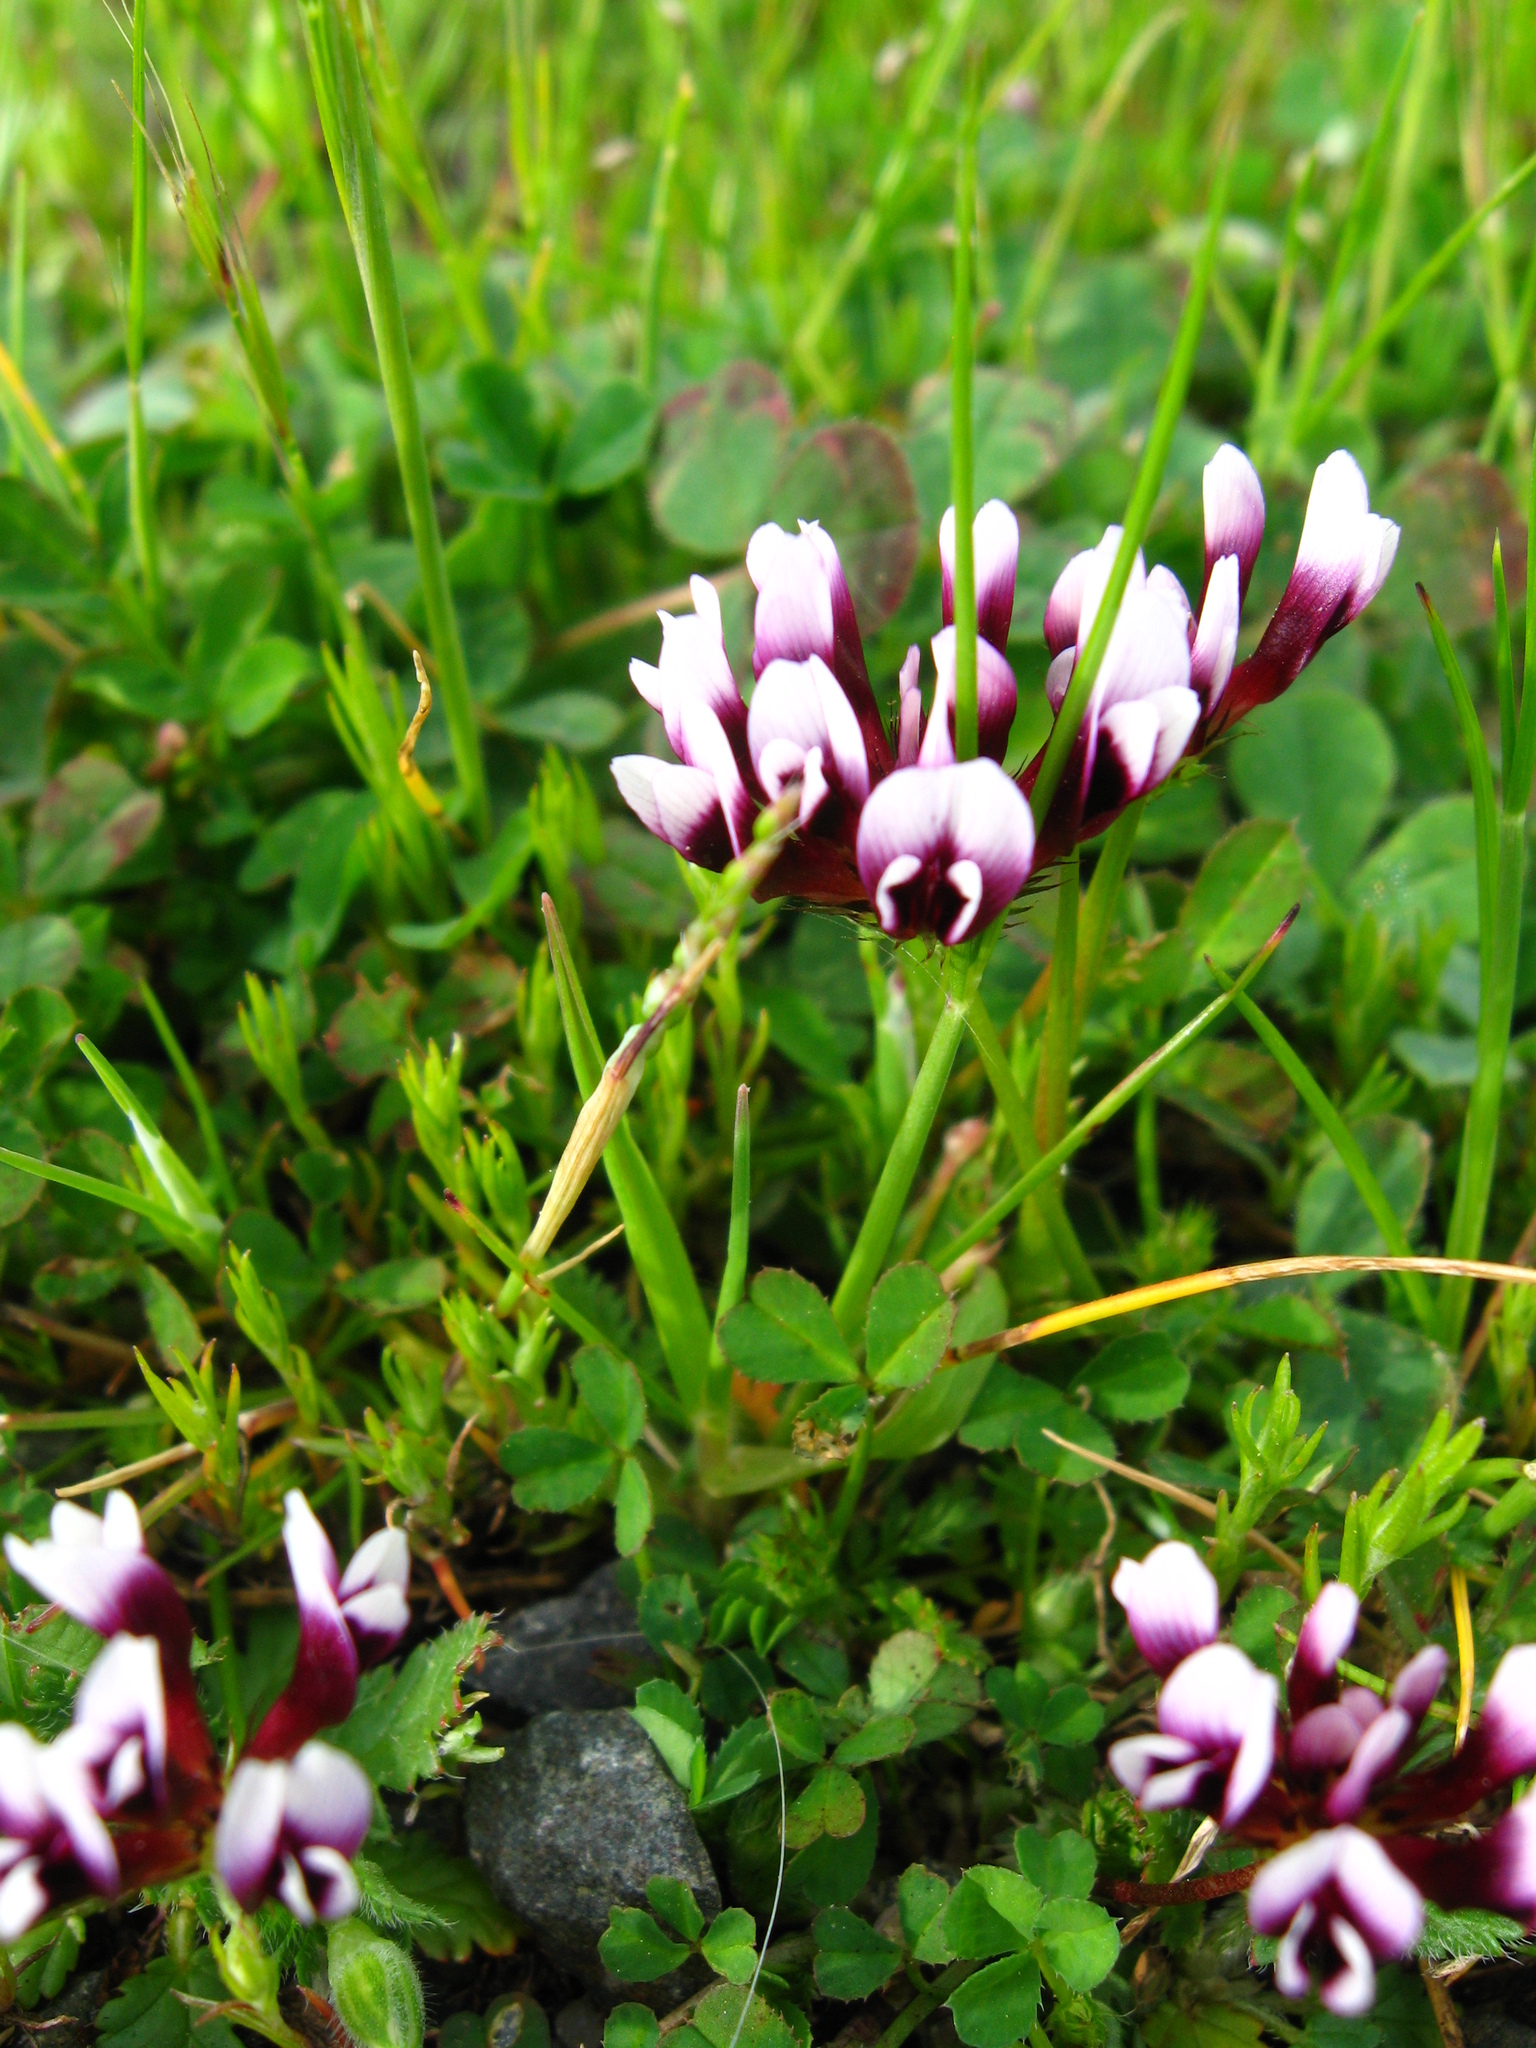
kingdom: Plantae
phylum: Tracheophyta
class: Magnoliopsida
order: Fabales
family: Fabaceae
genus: Trifolium
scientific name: Trifolium variegatum
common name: Whitetip clover
